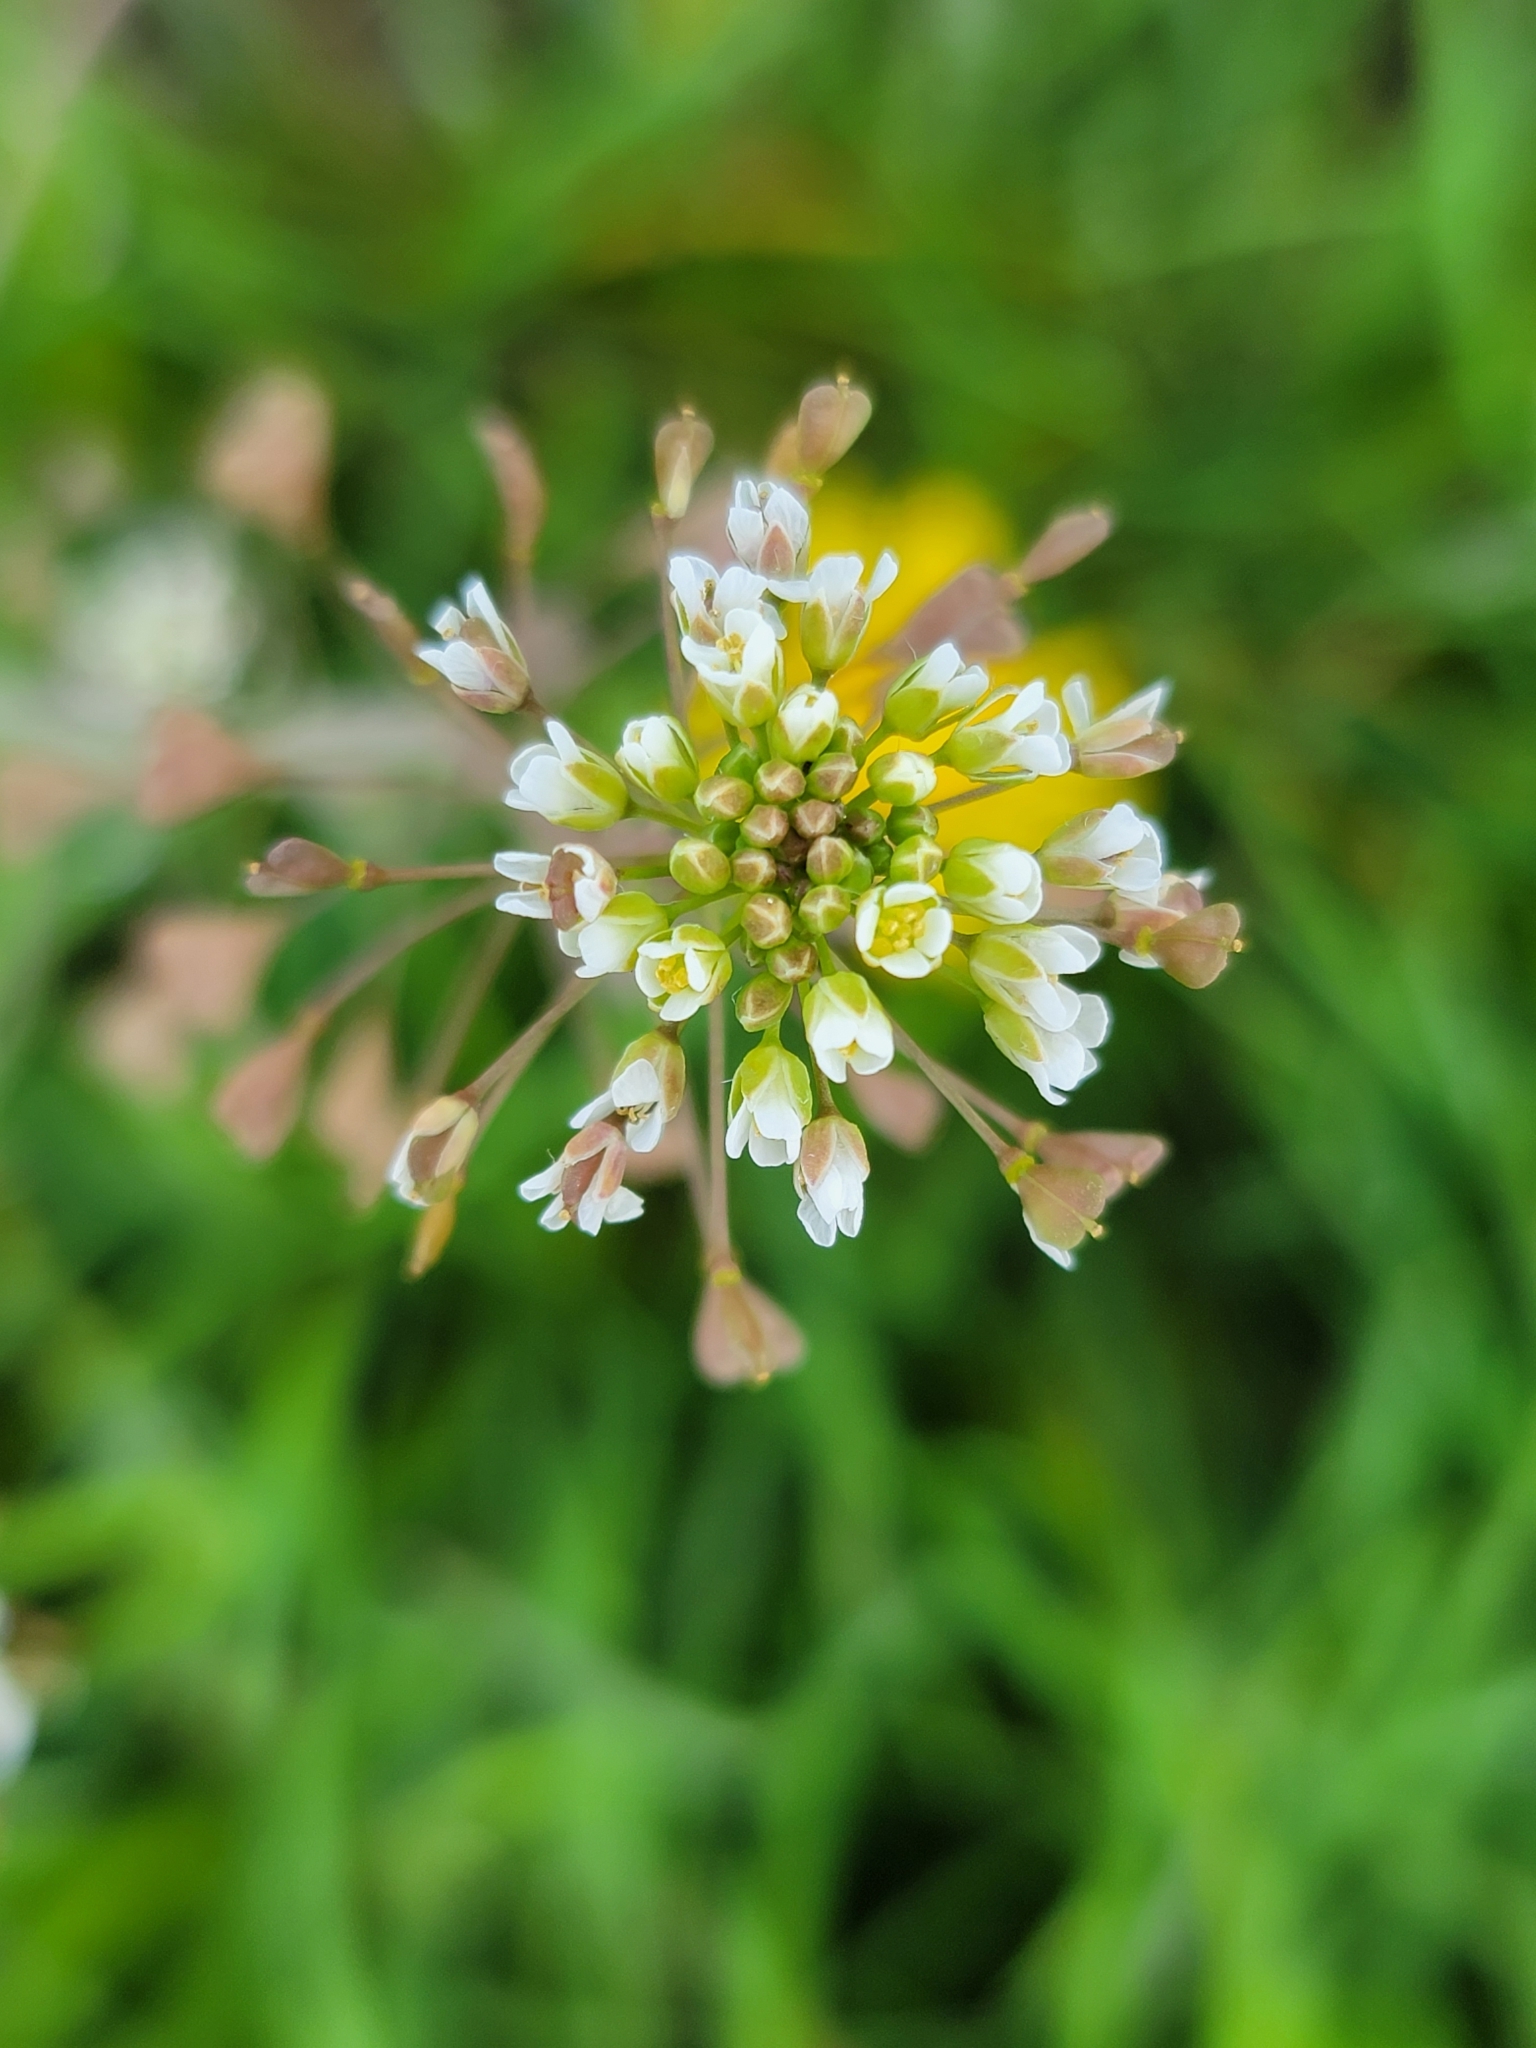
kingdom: Plantae
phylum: Tracheophyta
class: Magnoliopsida
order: Brassicales
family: Brassicaceae
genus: Capsella
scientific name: Capsella bursa-pastoris
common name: Shepherd's purse
